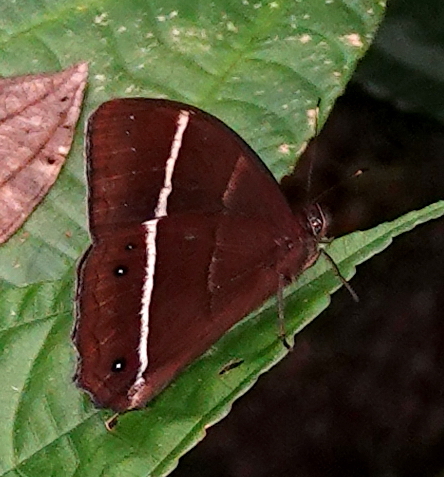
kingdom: Animalia
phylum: Arthropoda
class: Insecta
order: Lepidoptera
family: Nymphalidae
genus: Parataygetis
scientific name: Parataygetis lineata
